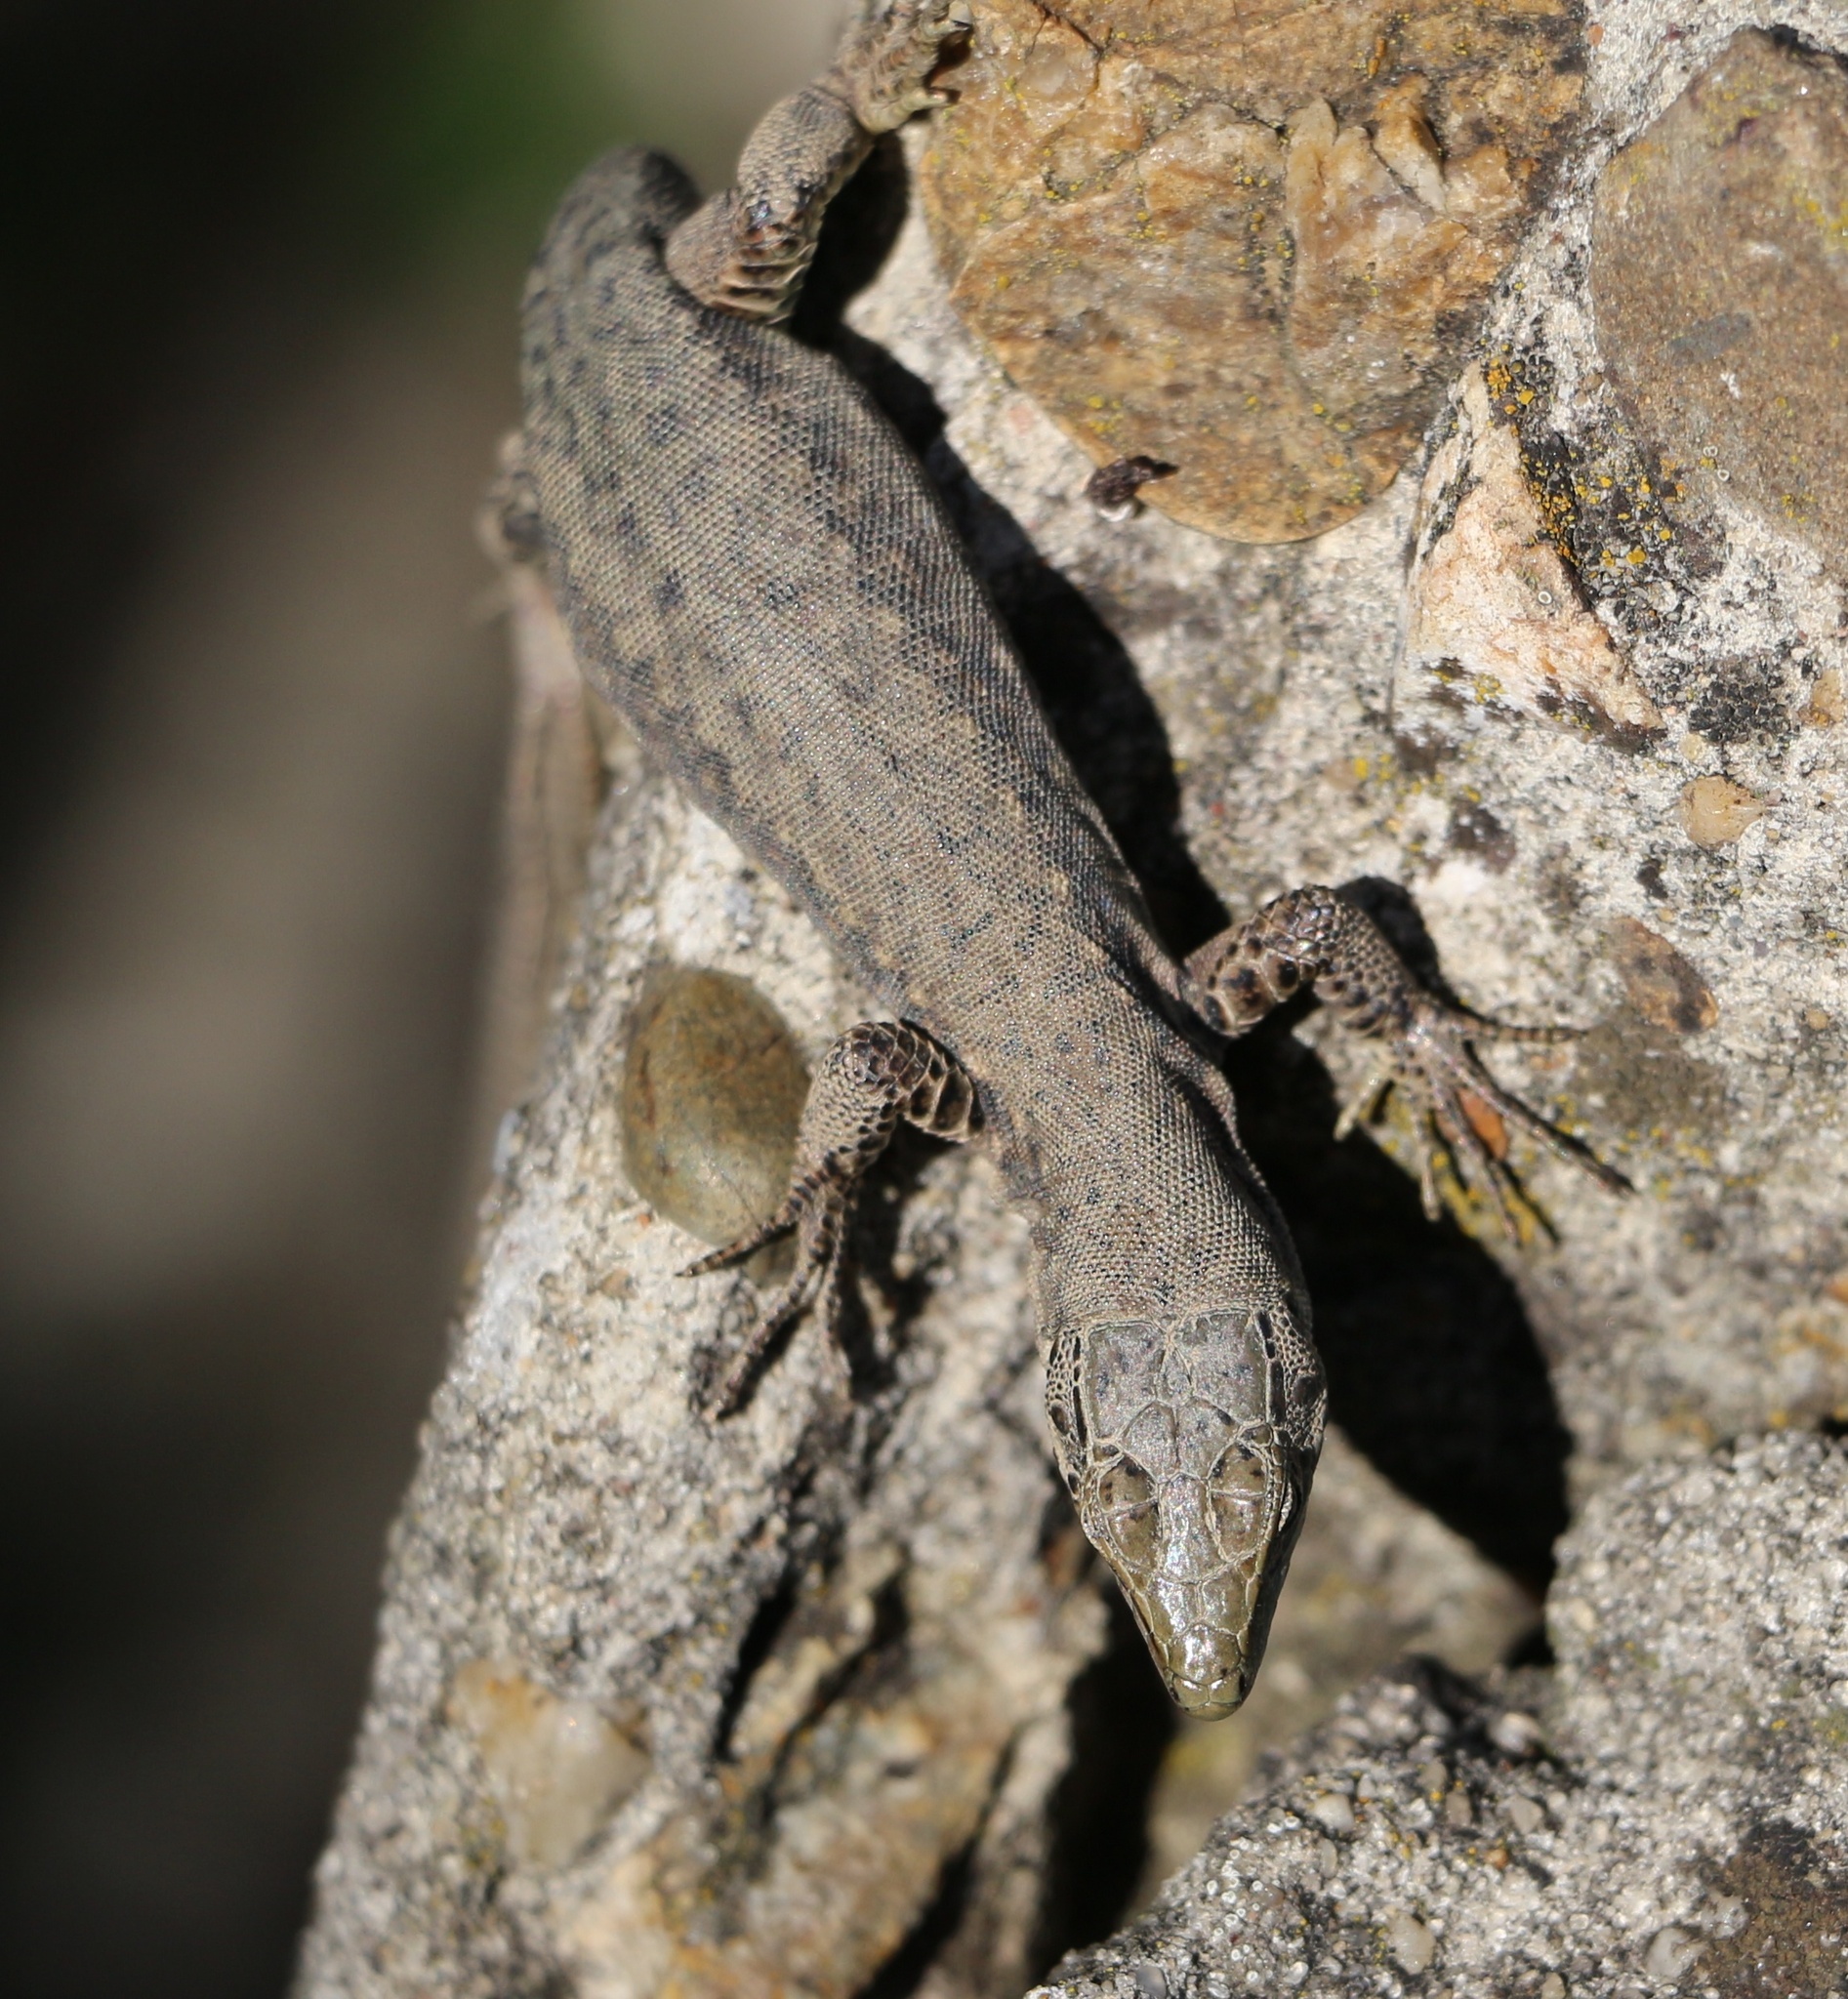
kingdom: Animalia
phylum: Chordata
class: Squamata
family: Lacertidae
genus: Darevskia
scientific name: Darevskia brauneri
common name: Brauner's rock lizard
